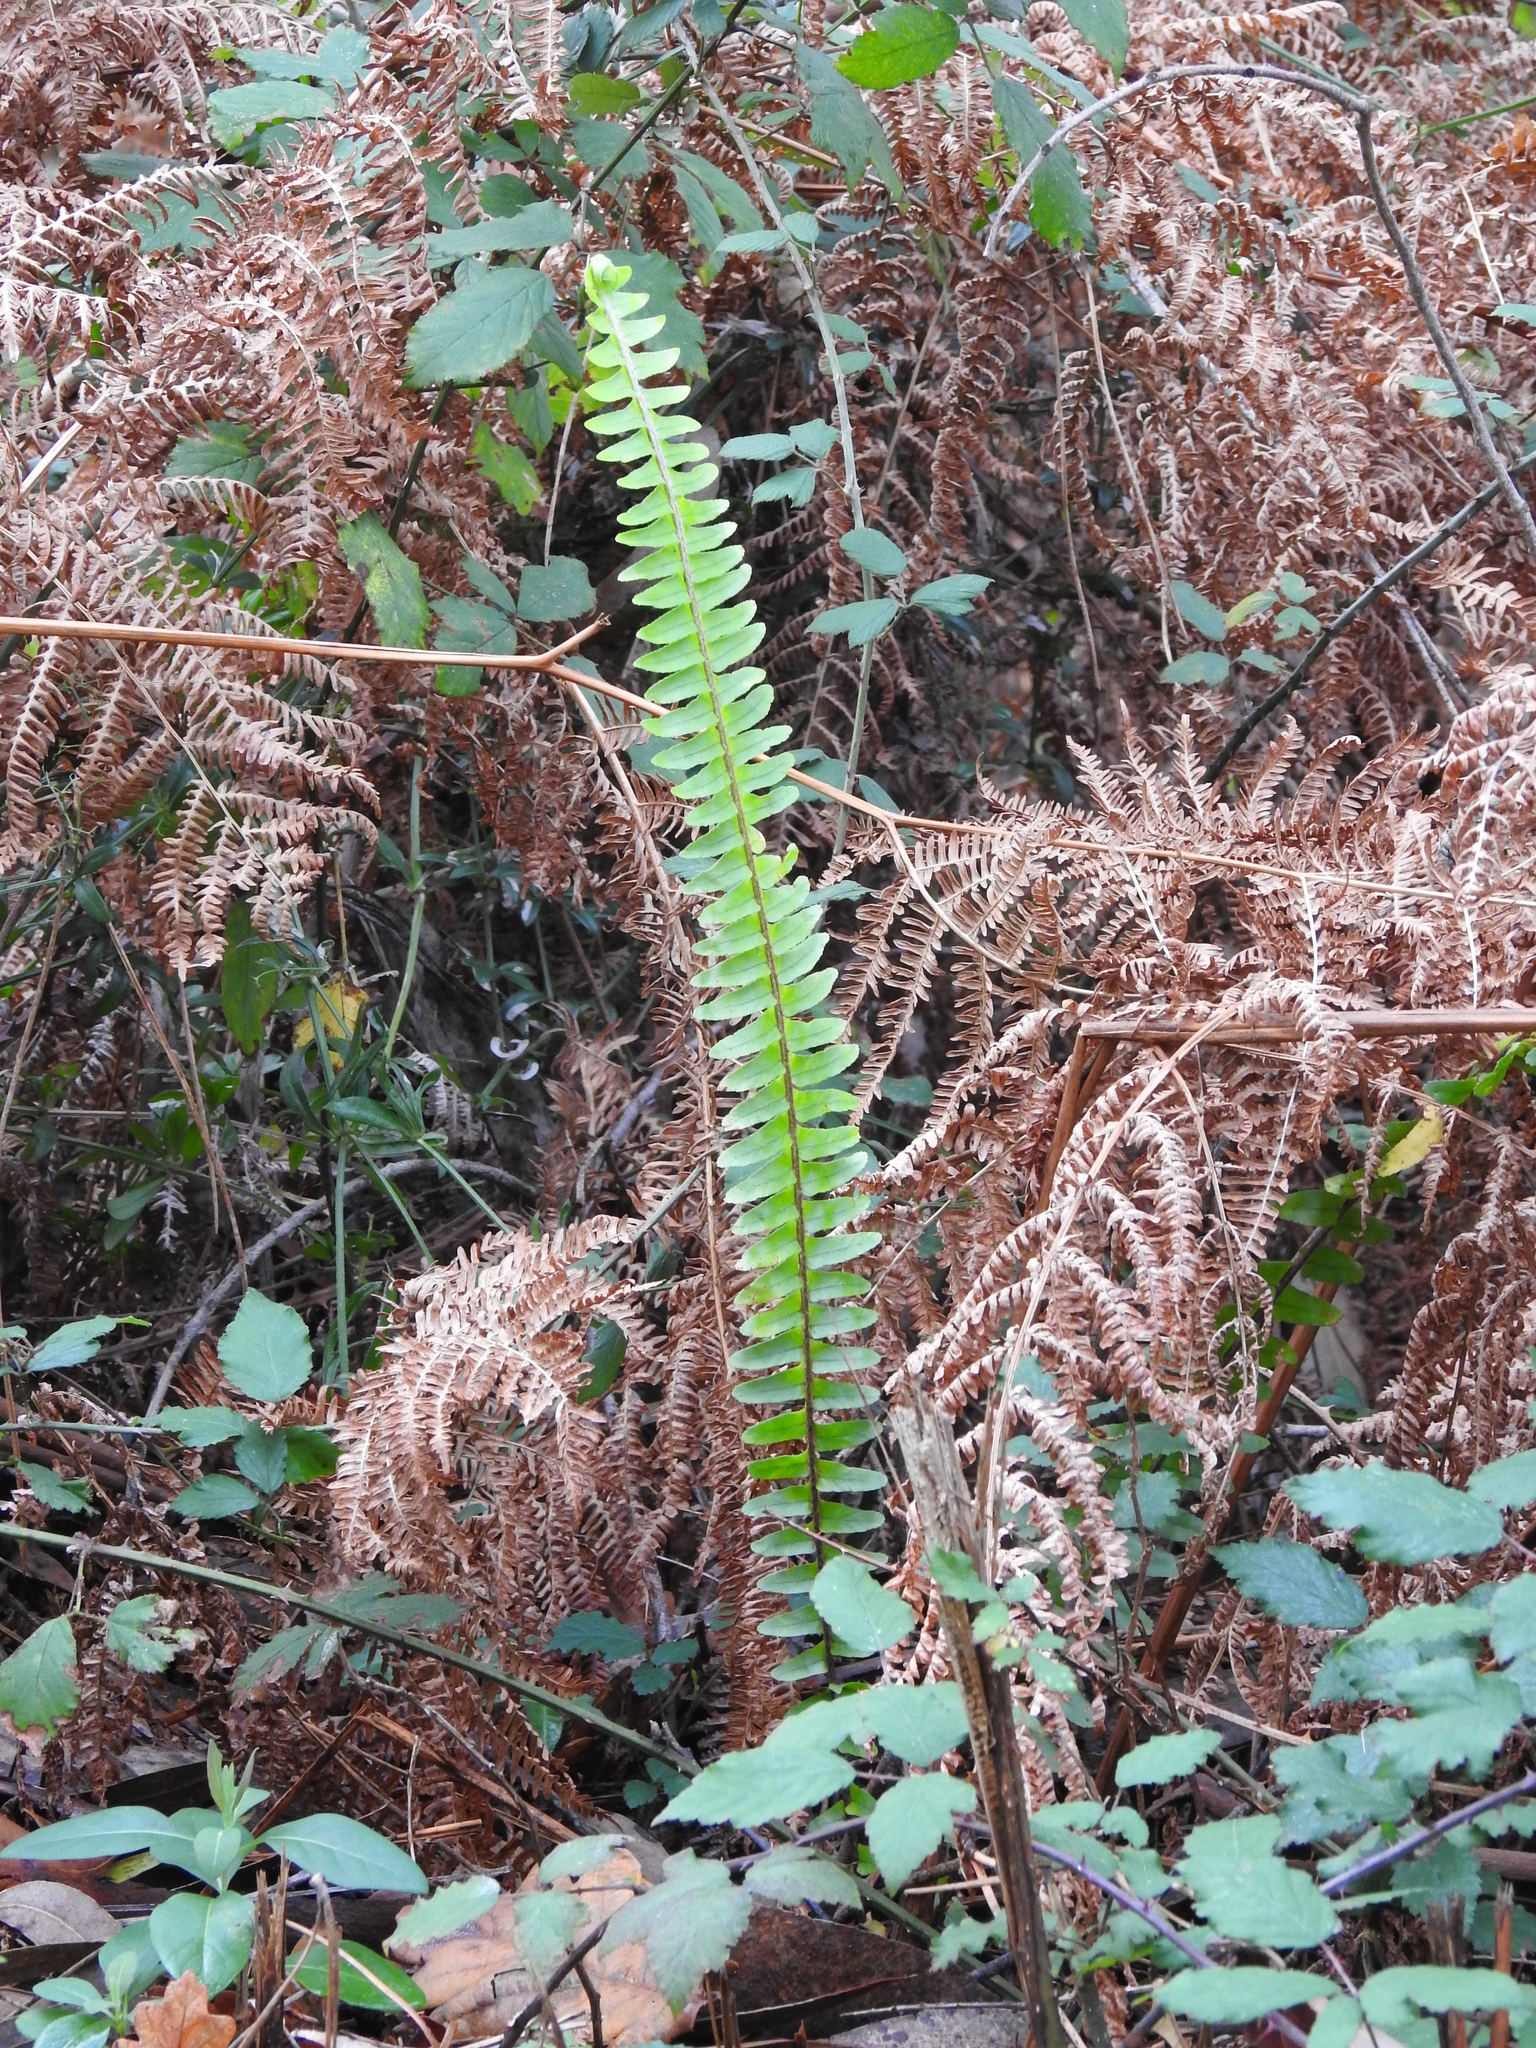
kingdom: Plantae
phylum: Tracheophyta
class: Polypodiopsida
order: Polypodiales
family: Dennstaedtiaceae
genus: Pteridium
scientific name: Pteridium aquilinum
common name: Bracken
